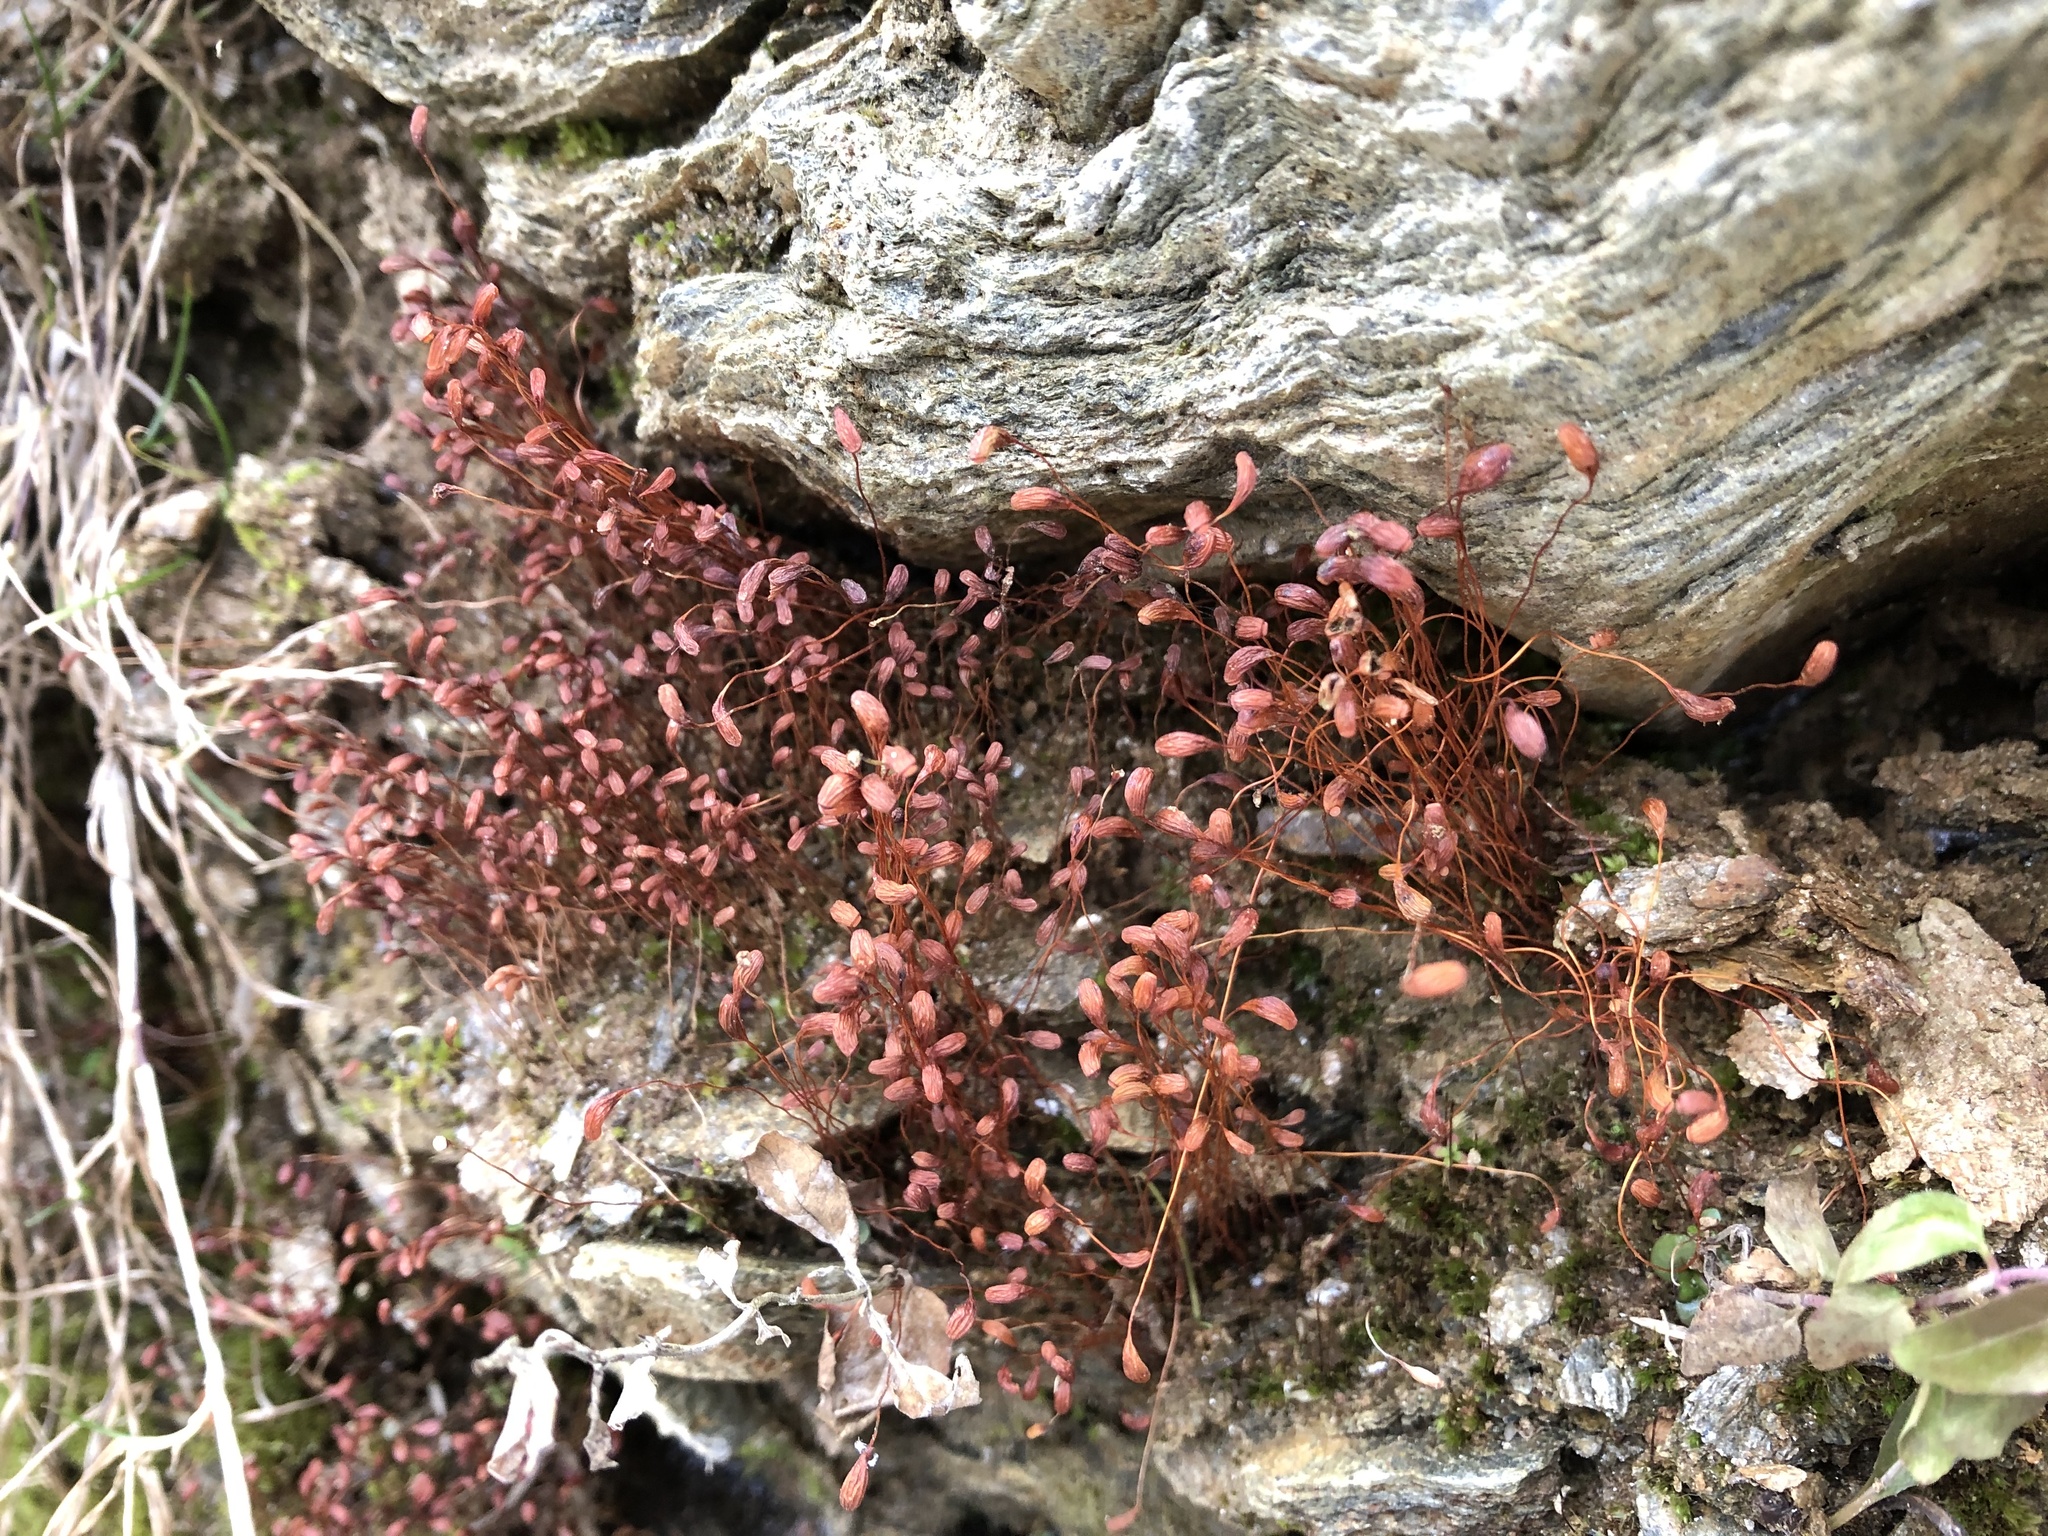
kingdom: Plantae
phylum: Bryophyta
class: Bryopsida
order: Funariales
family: Funariaceae
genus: Funaria
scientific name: Funaria hygrometrica
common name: Common cord moss
